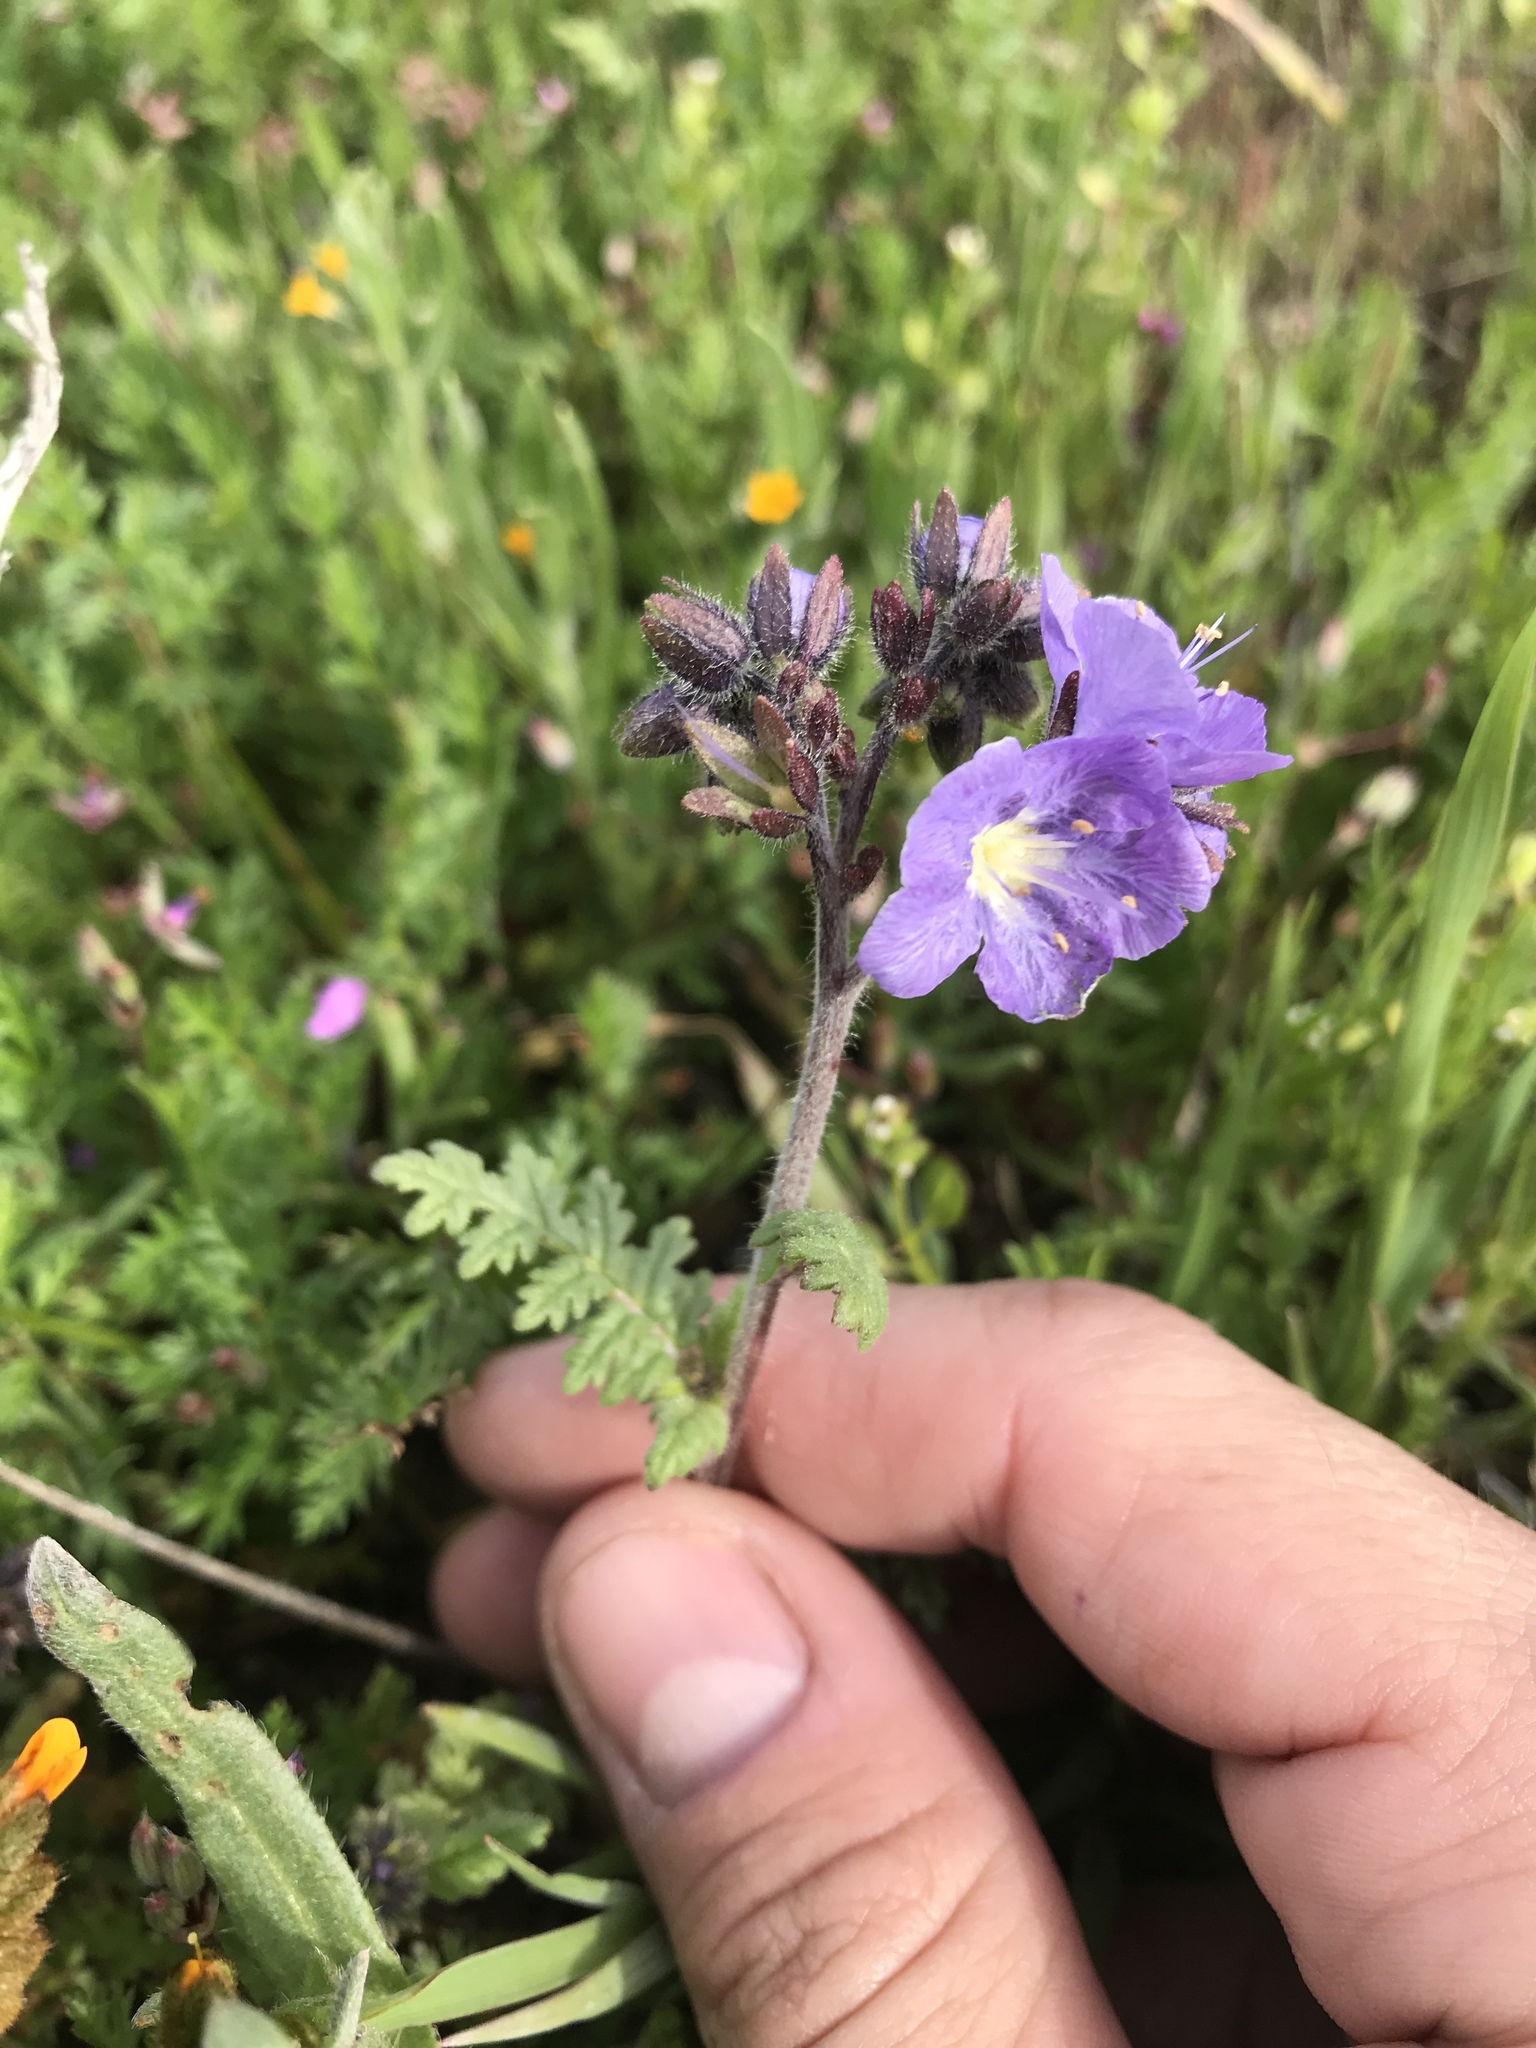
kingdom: Plantae
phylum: Tracheophyta
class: Magnoliopsida
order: Boraginales
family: Hydrophyllaceae
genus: Phacelia
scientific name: Phacelia ciliata
